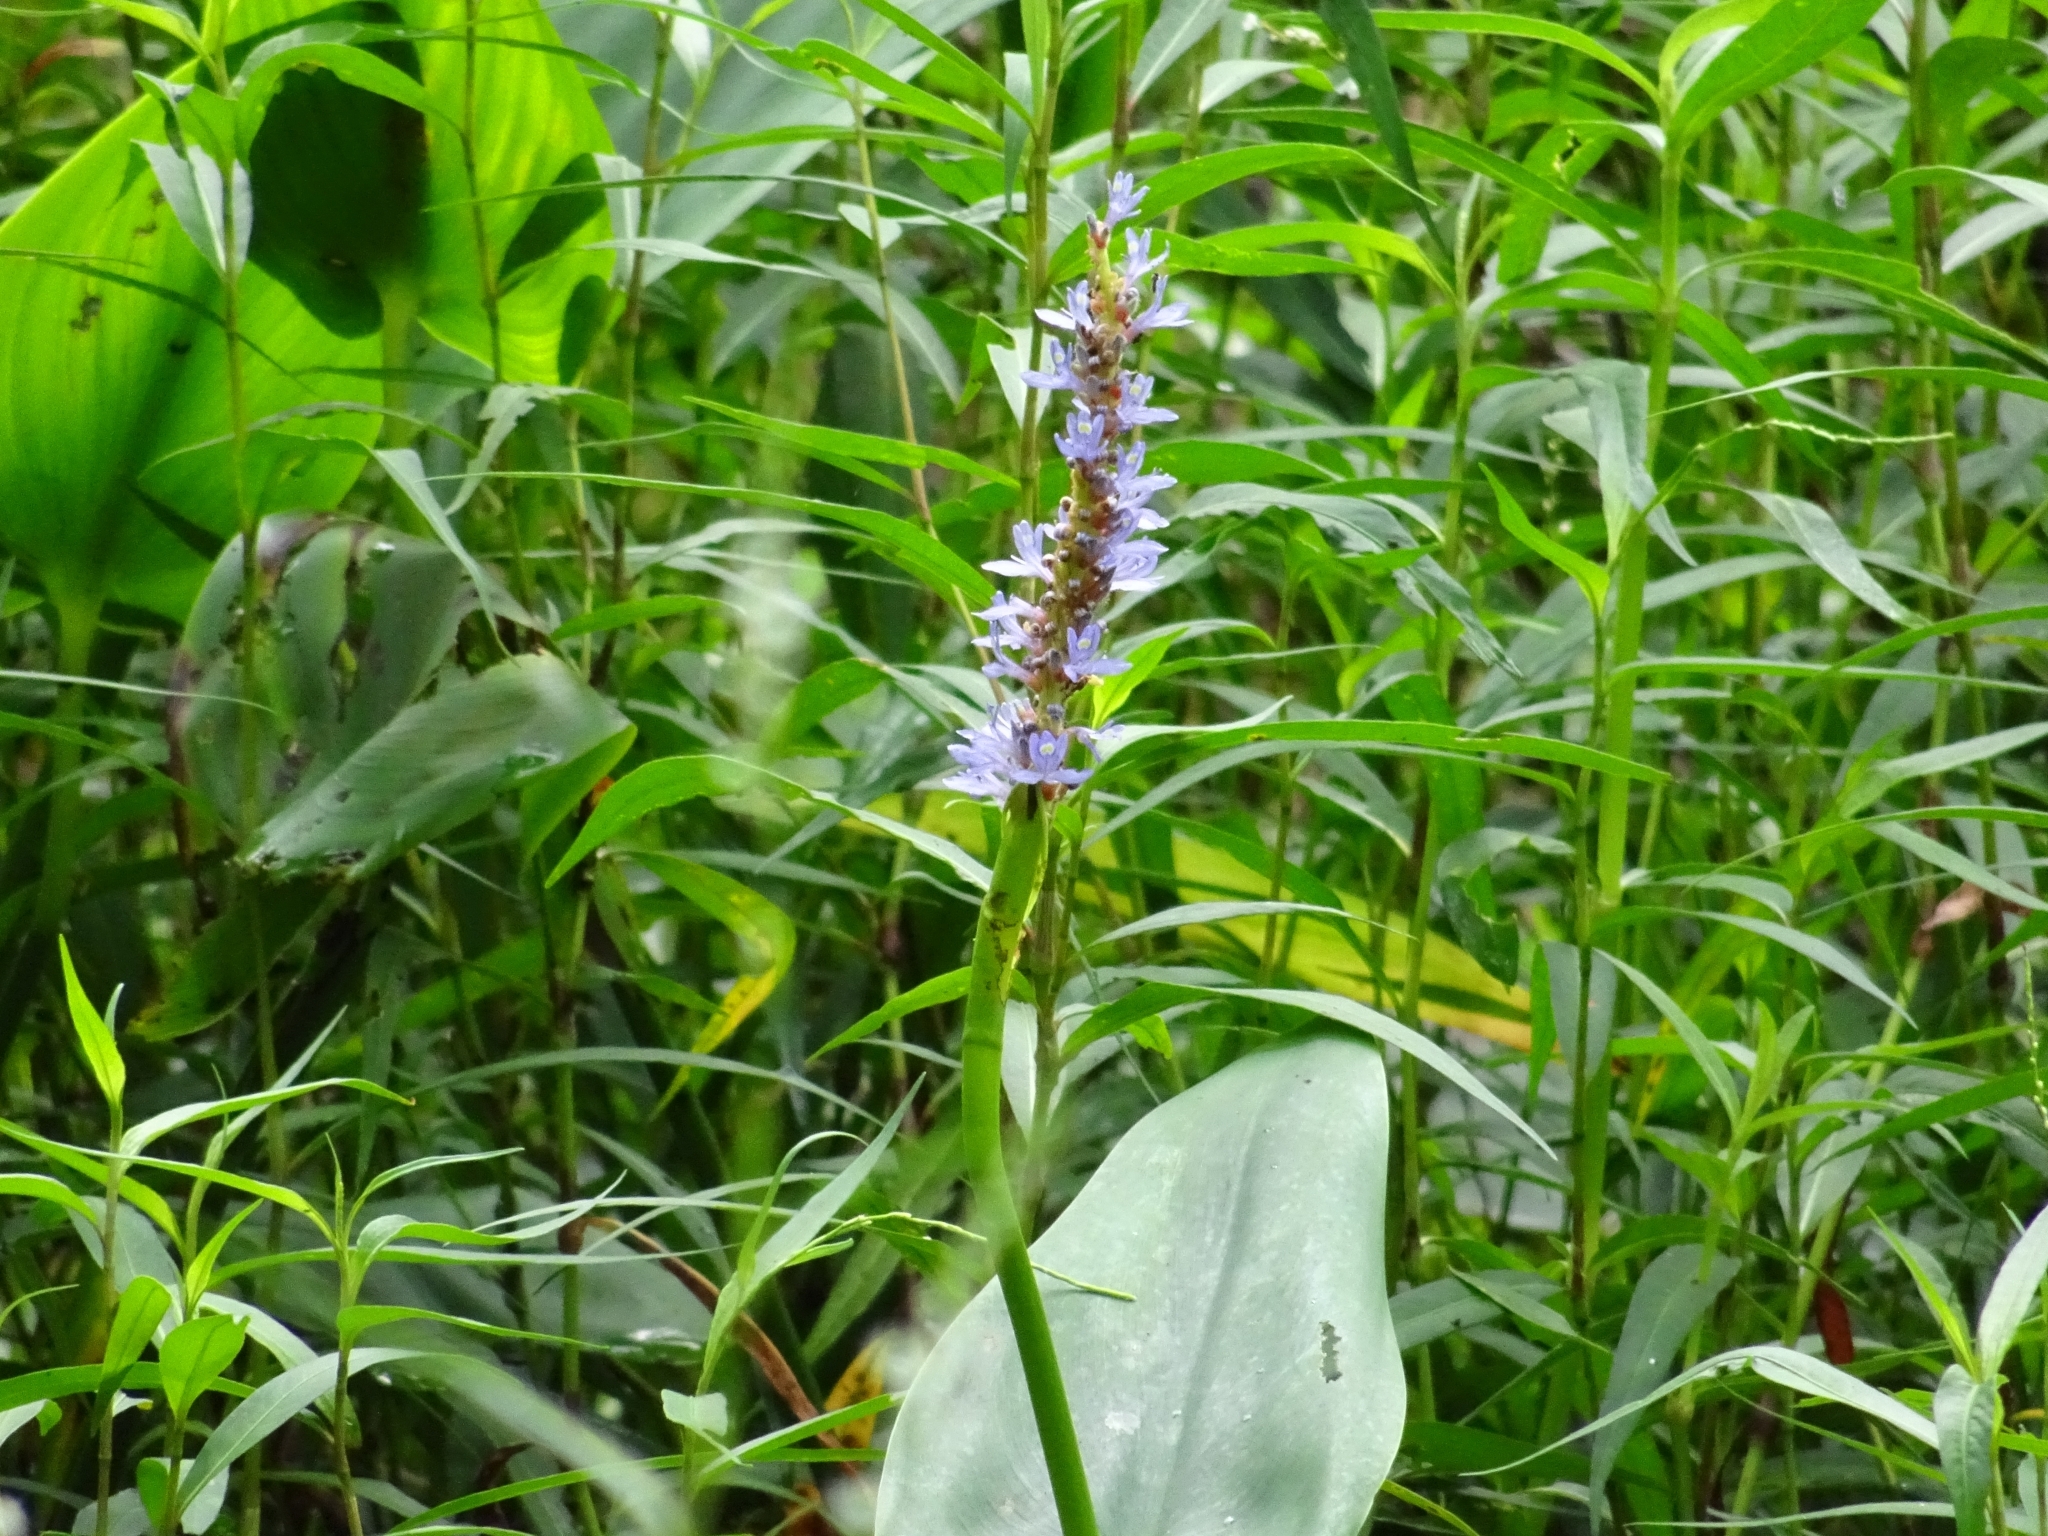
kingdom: Plantae
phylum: Tracheophyta
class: Liliopsida
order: Commelinales
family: Pontederiaceae
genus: Pontederia
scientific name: Pontederia cordata
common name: Pickerelweed
